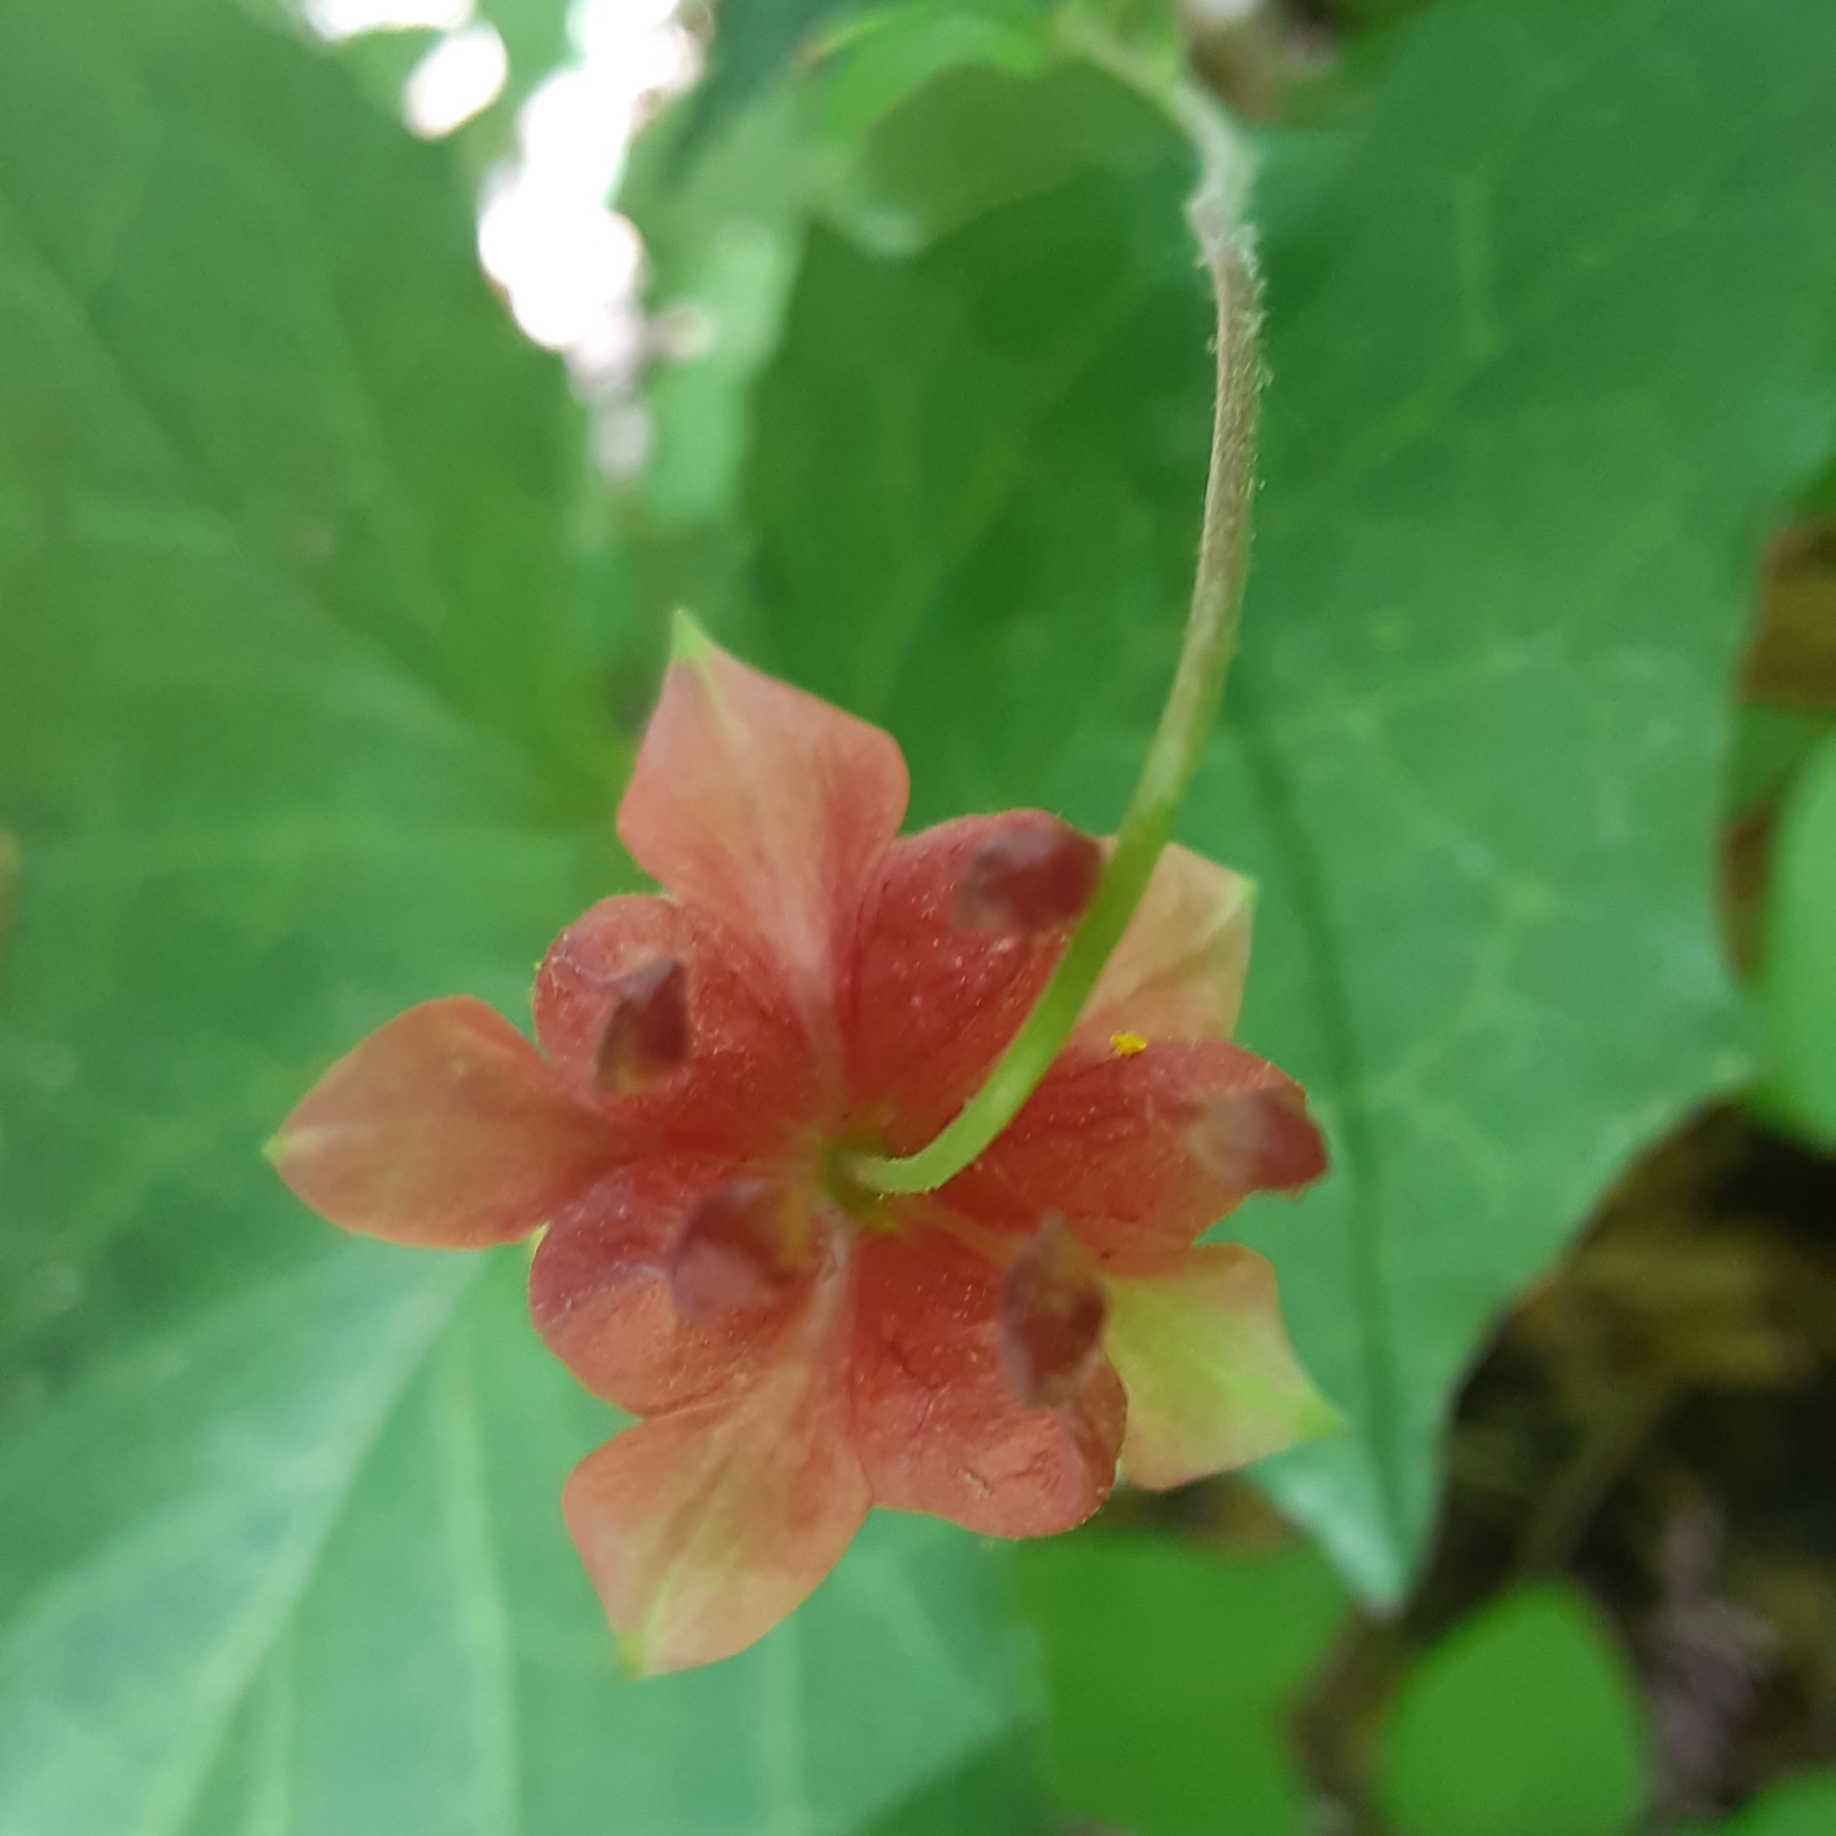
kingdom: Plantae
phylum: Tracheophyta
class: Magnoliopsida
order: Ranunculales
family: Ranunculaceae
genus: Aquilegia
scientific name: Aquilegia canadensis
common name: American columbine
